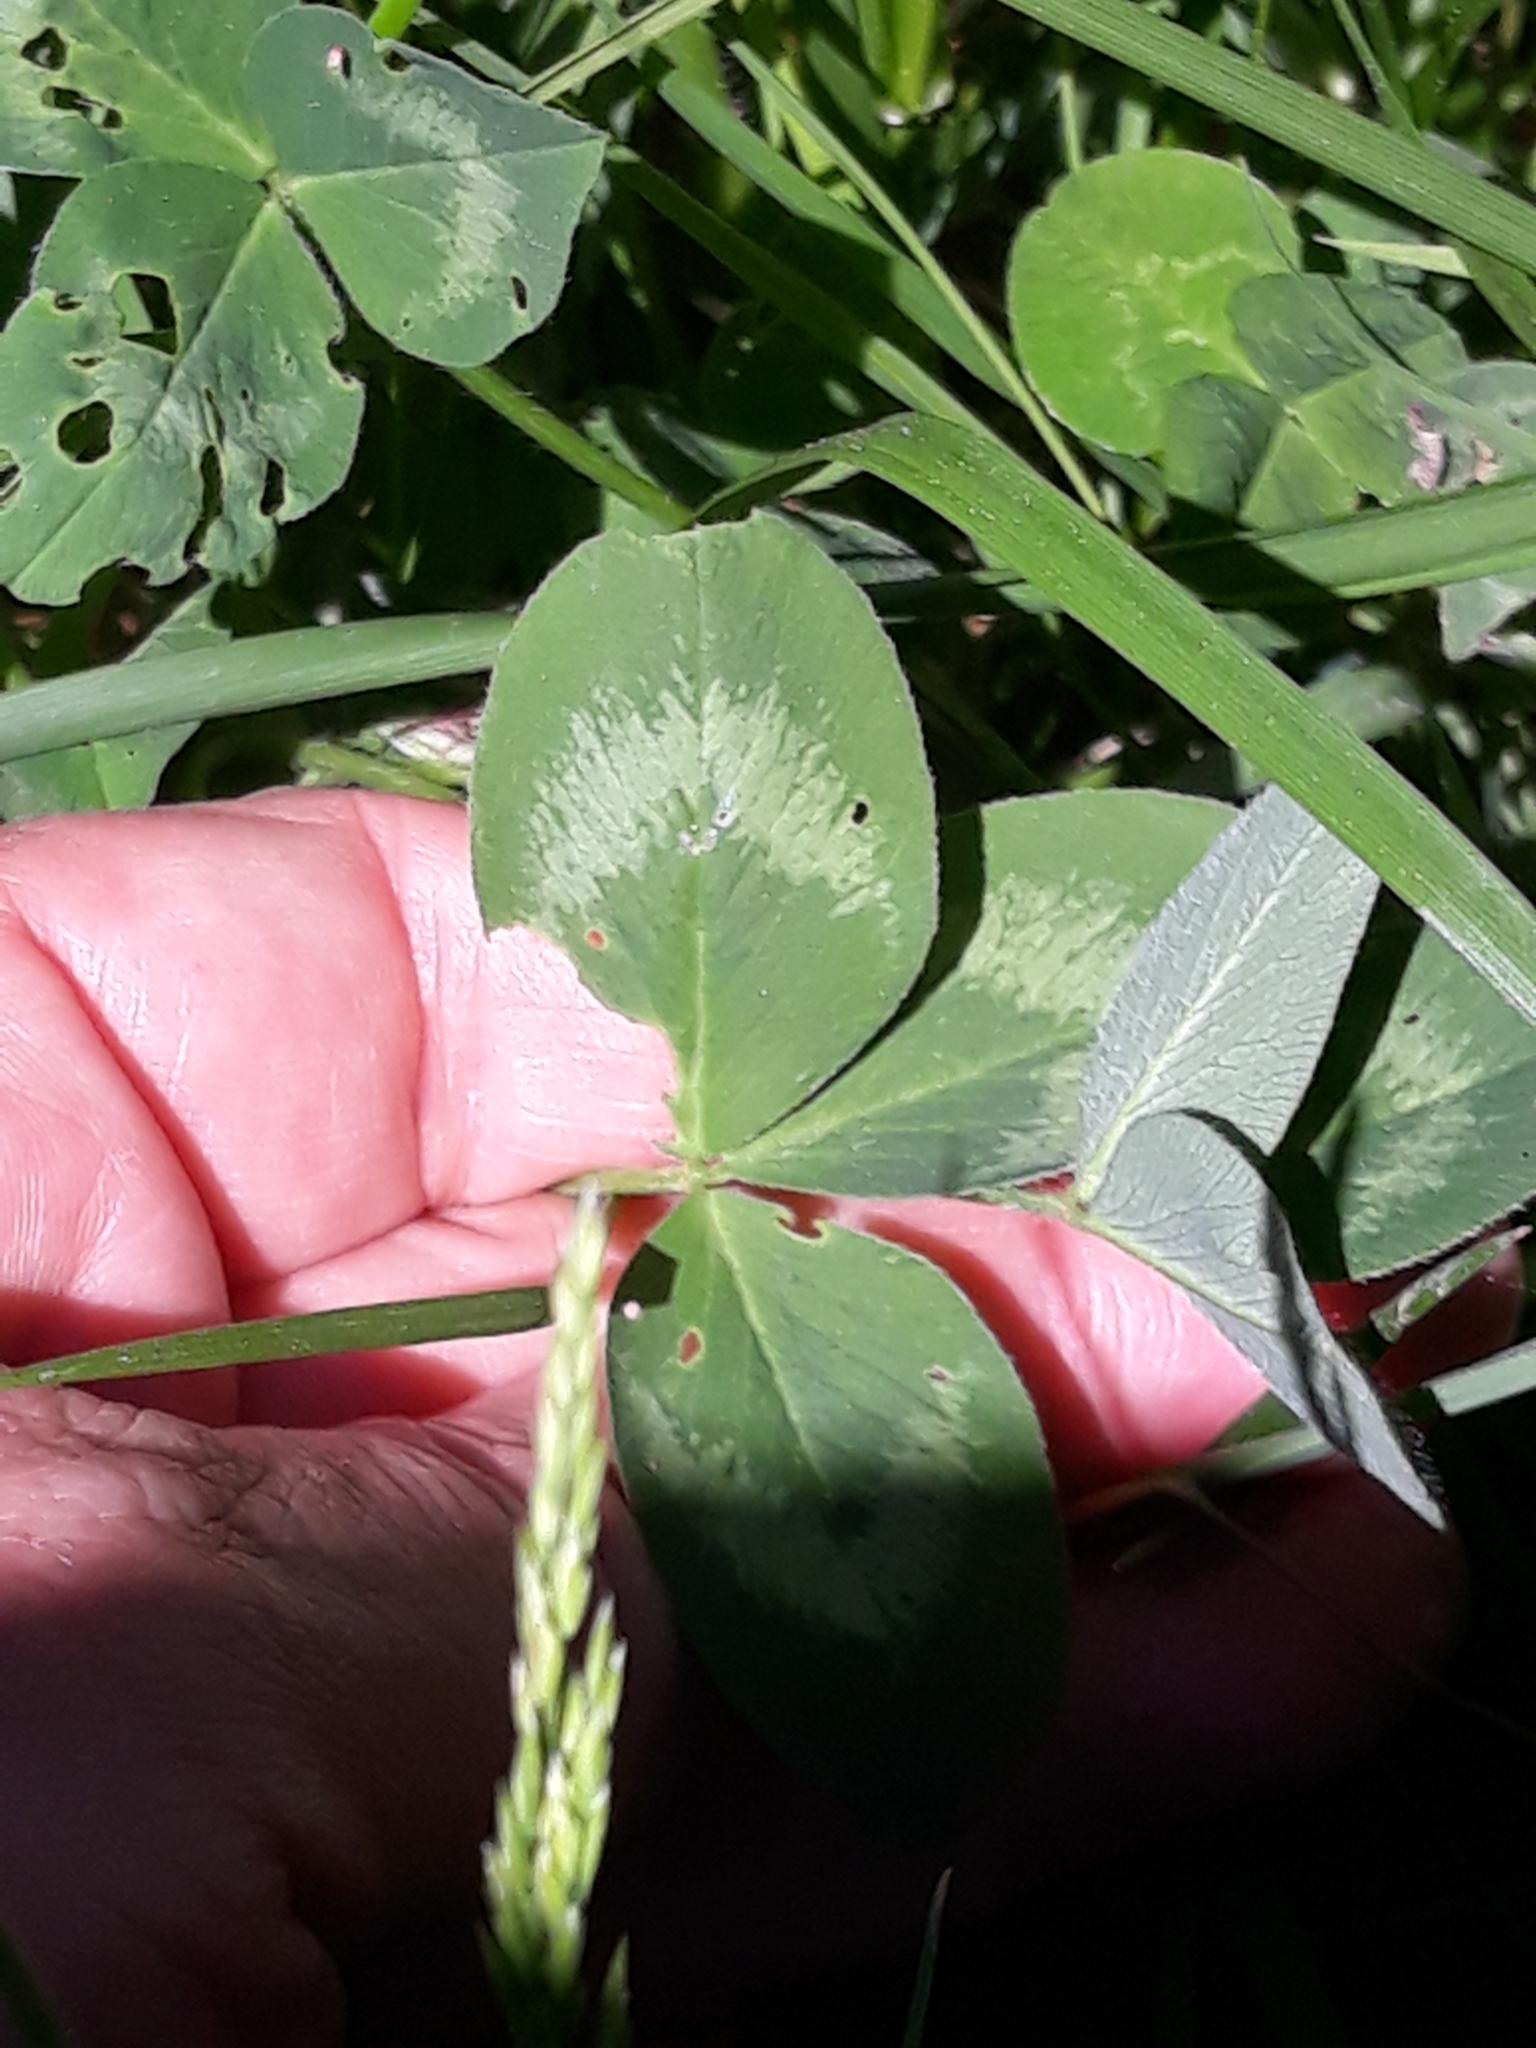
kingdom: Plantae
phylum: Tracheophyta
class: Magnoliopsida
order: Fabales
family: Fabaceae
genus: Trifolium
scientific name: Trifolium pratense
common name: Red clover
